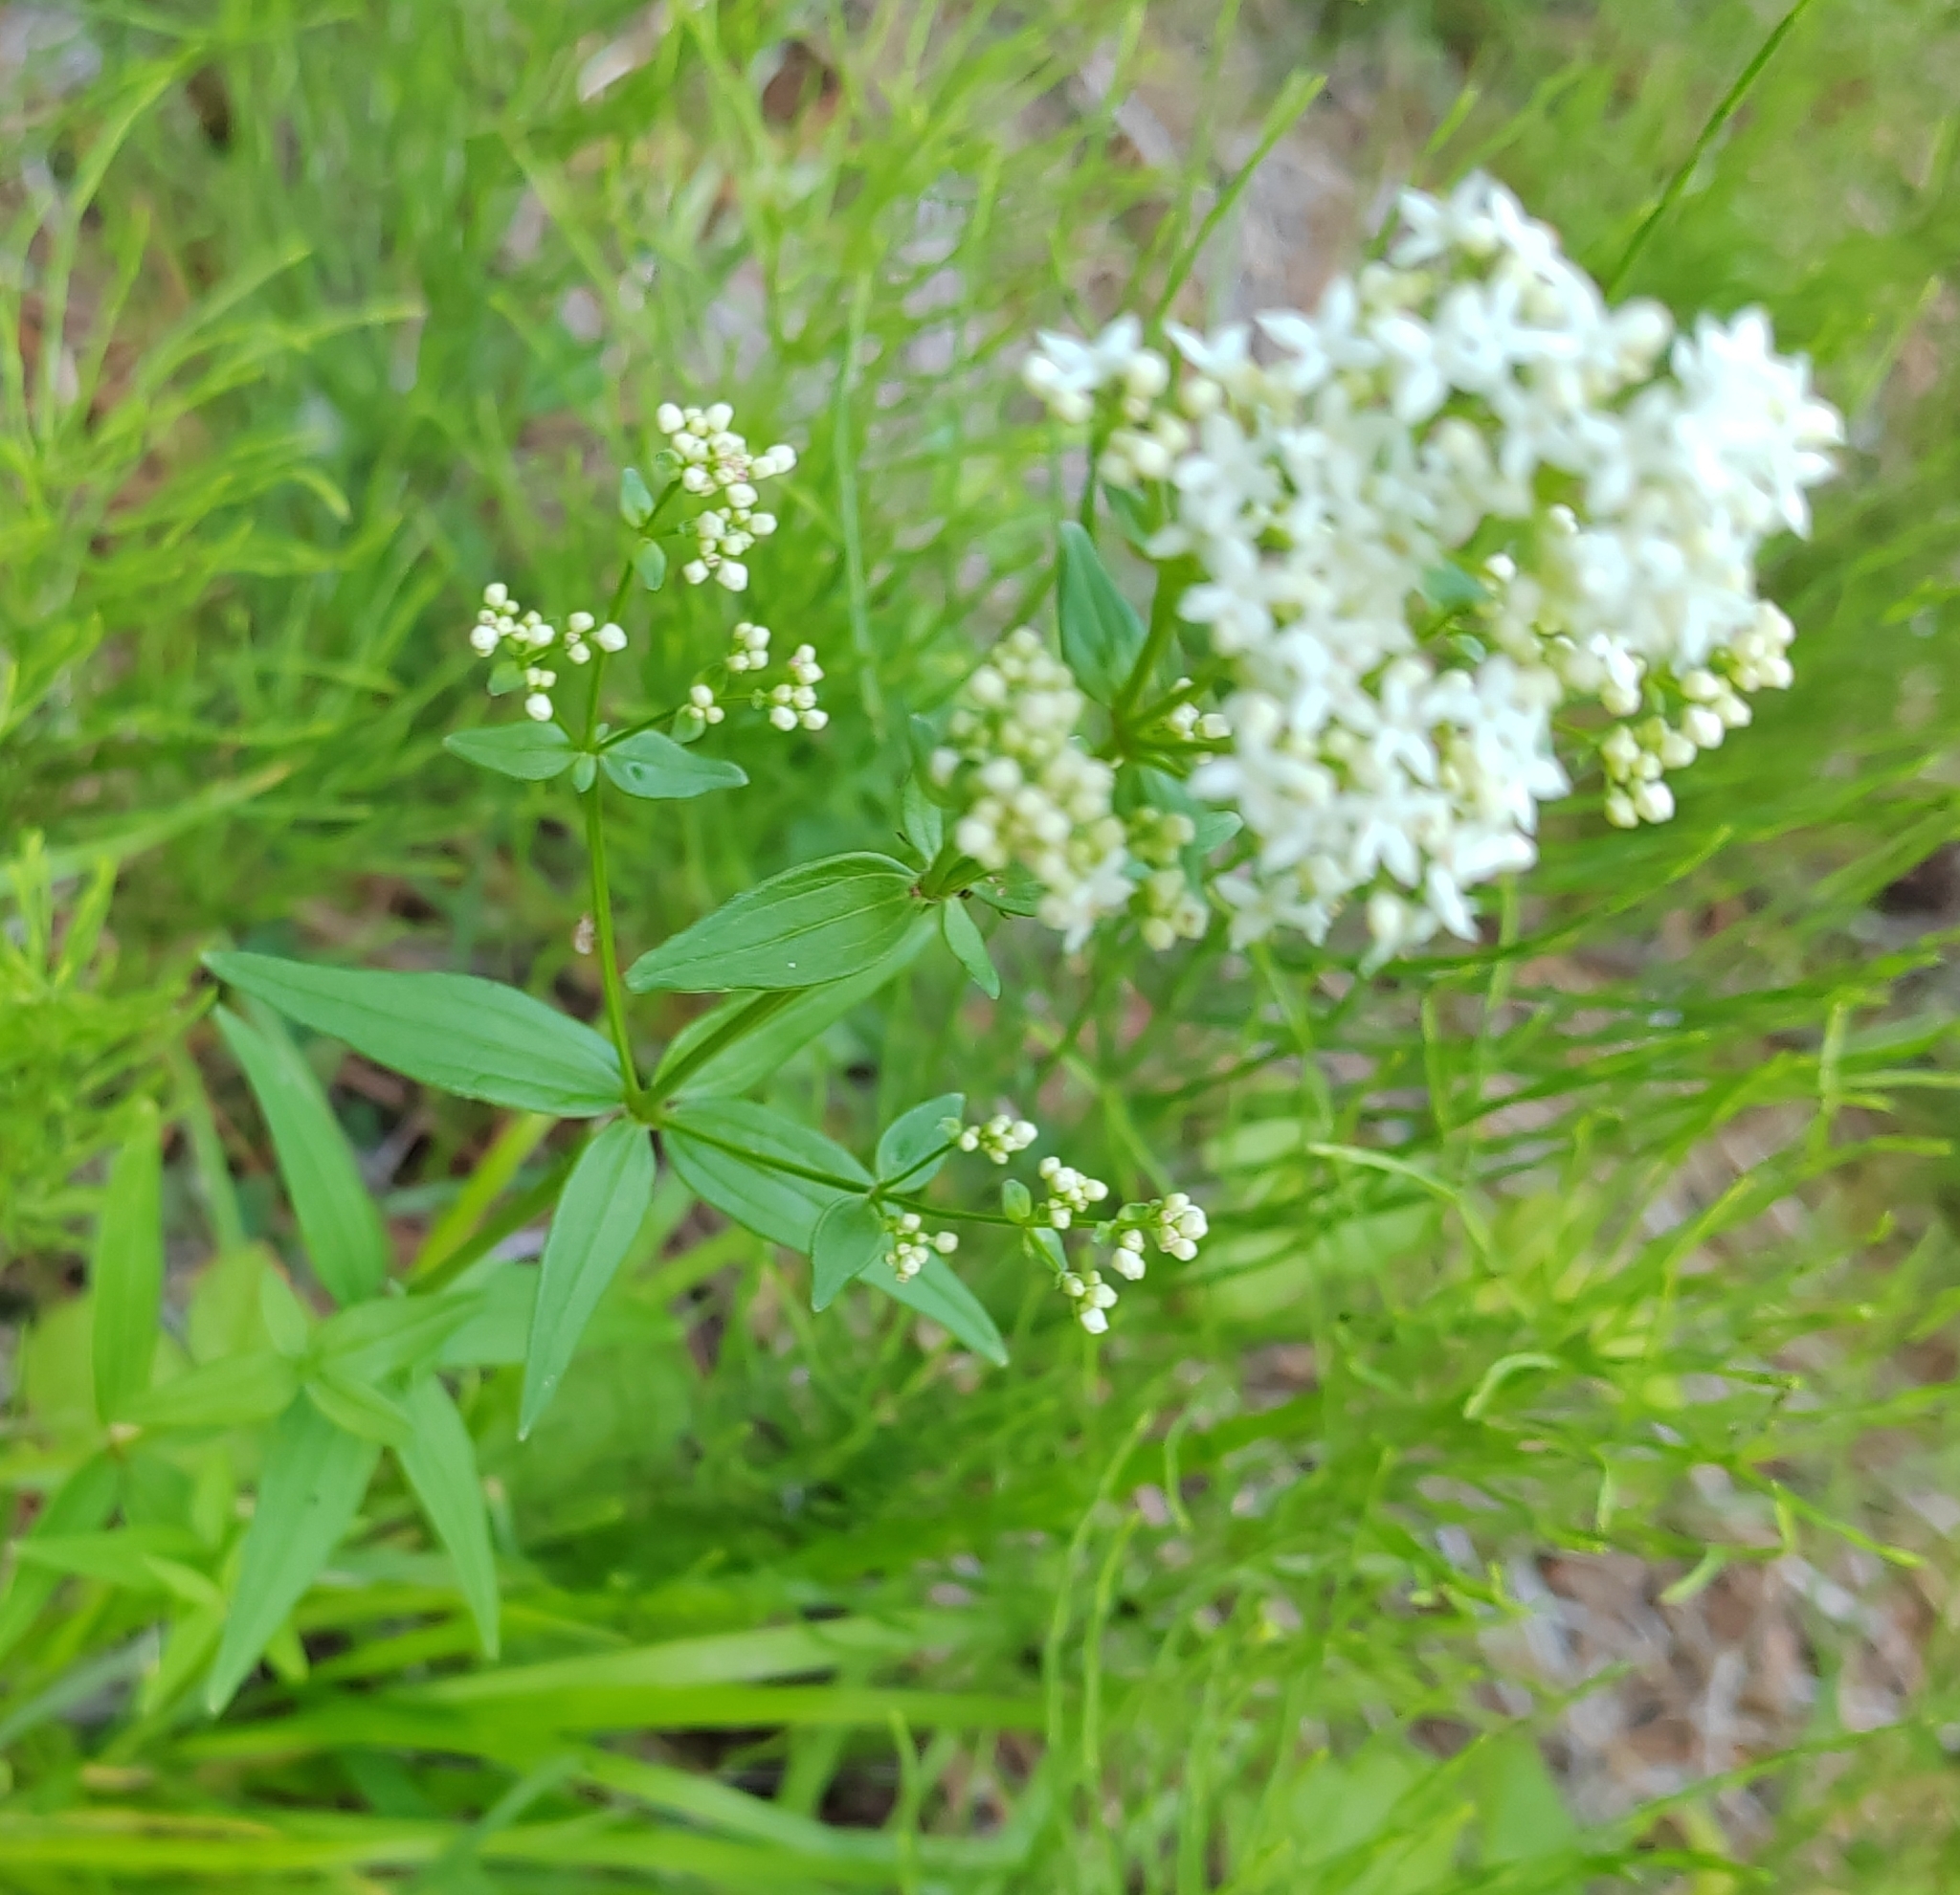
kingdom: Plantae
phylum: Tracheophyta
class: Magnoliopsida
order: Gentianales
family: Rubiaceae
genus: Galium
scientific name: Galium boreale
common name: Northern bedstraw
